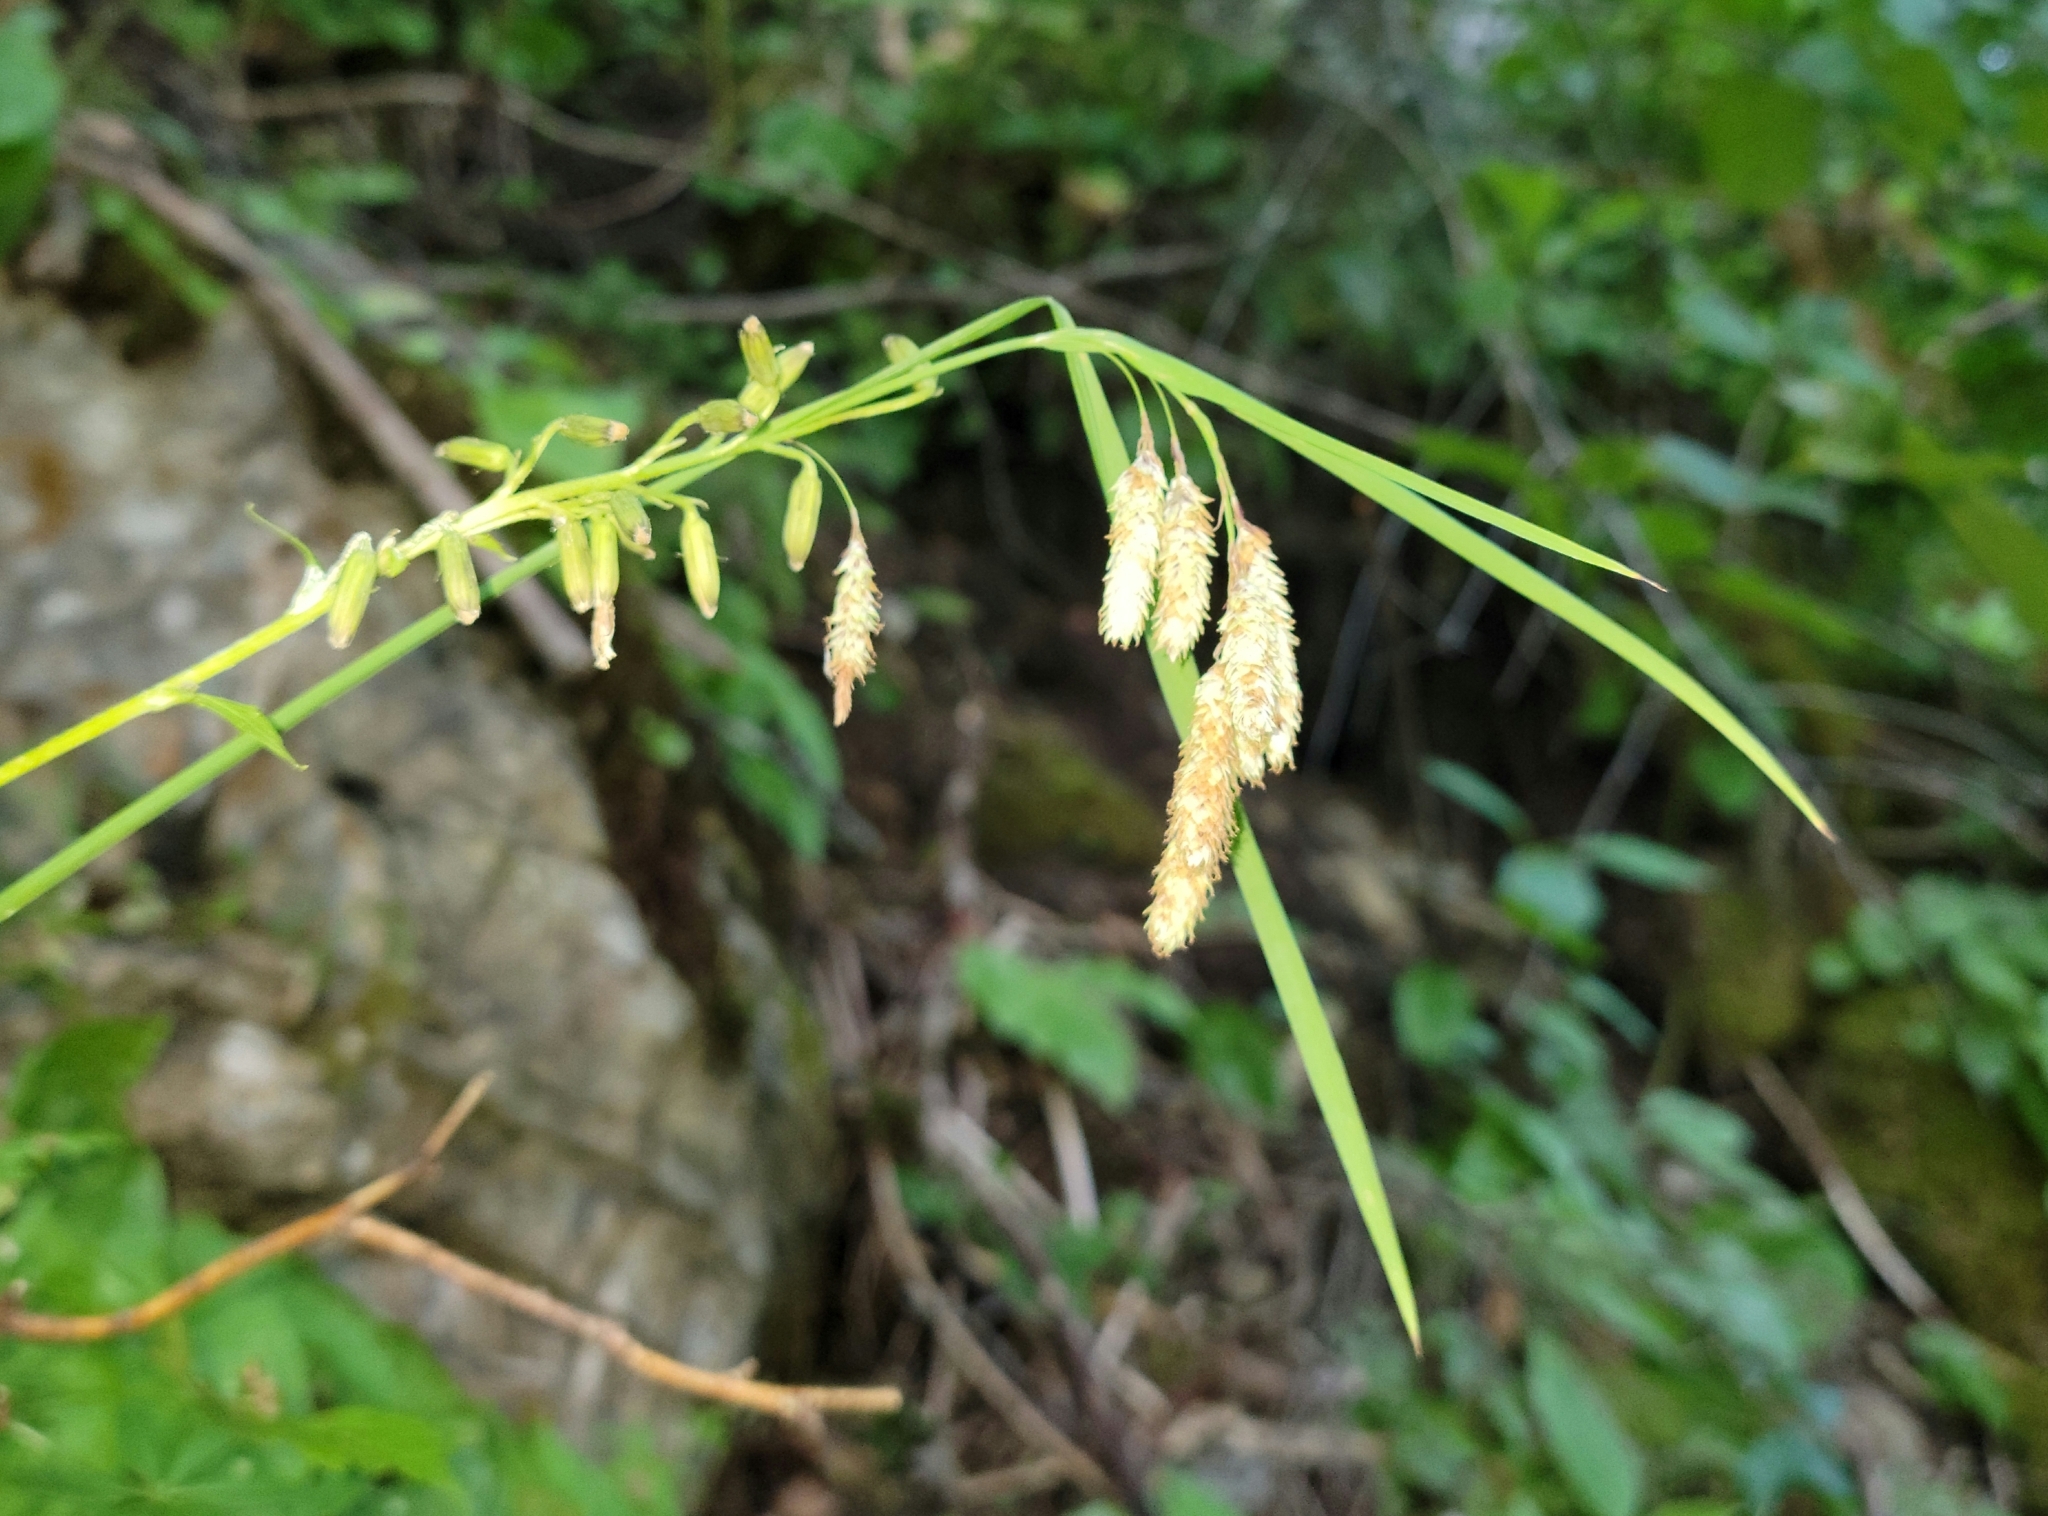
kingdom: Plantae
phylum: Tracheophyta
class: Liliopsida
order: Poales
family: Cyperaceae
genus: Carex
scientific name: Carex mertensii
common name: Mertens' sedge
